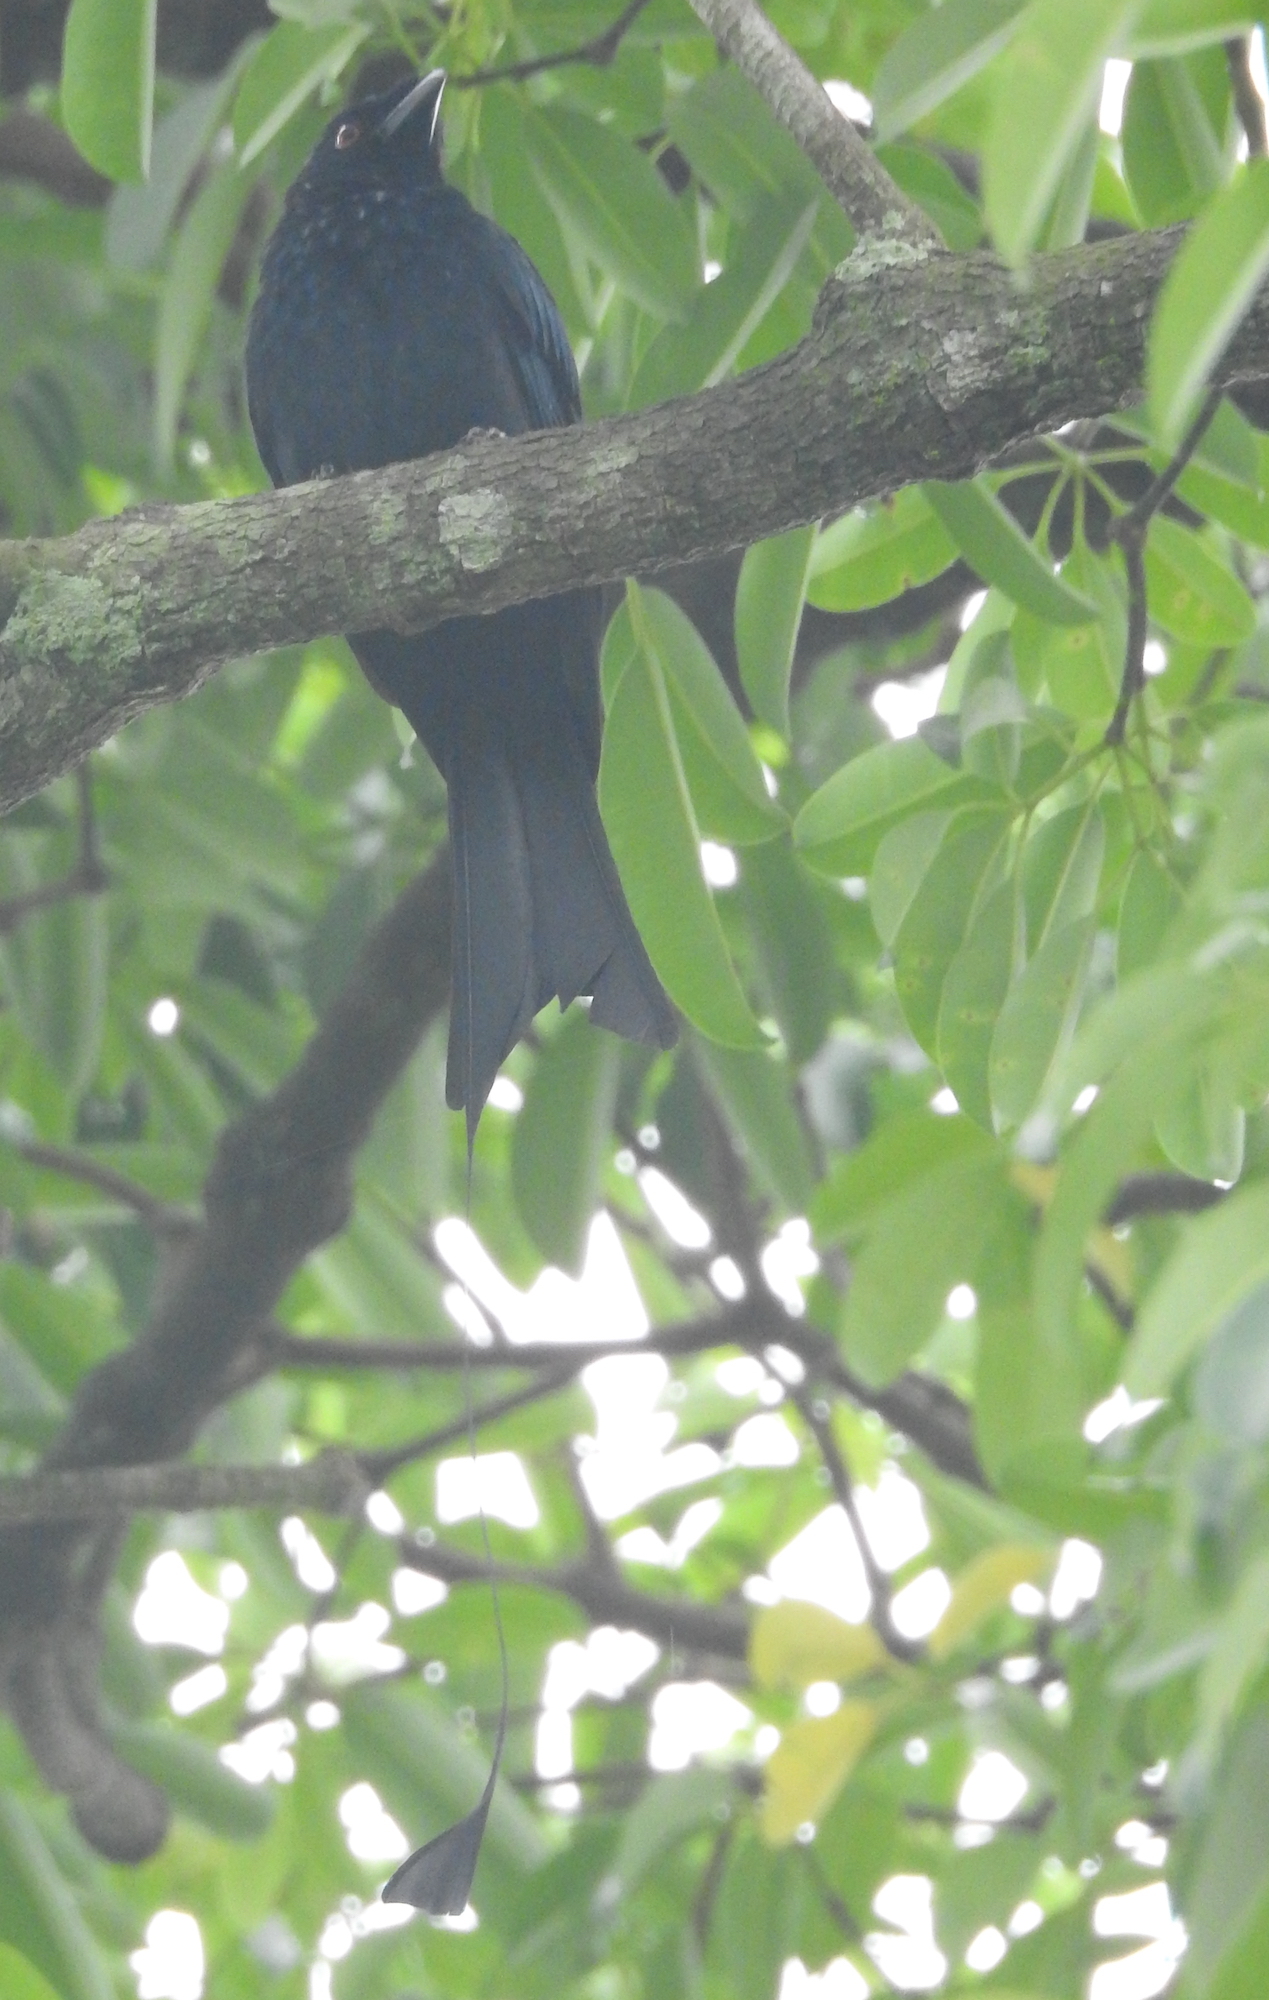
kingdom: Animalia
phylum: Chordata
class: Aves
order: Passeriformes
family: Dicruridae
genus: Dicrurus
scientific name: Dicrurus paradiseus
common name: Greater racket-tailed drongo
